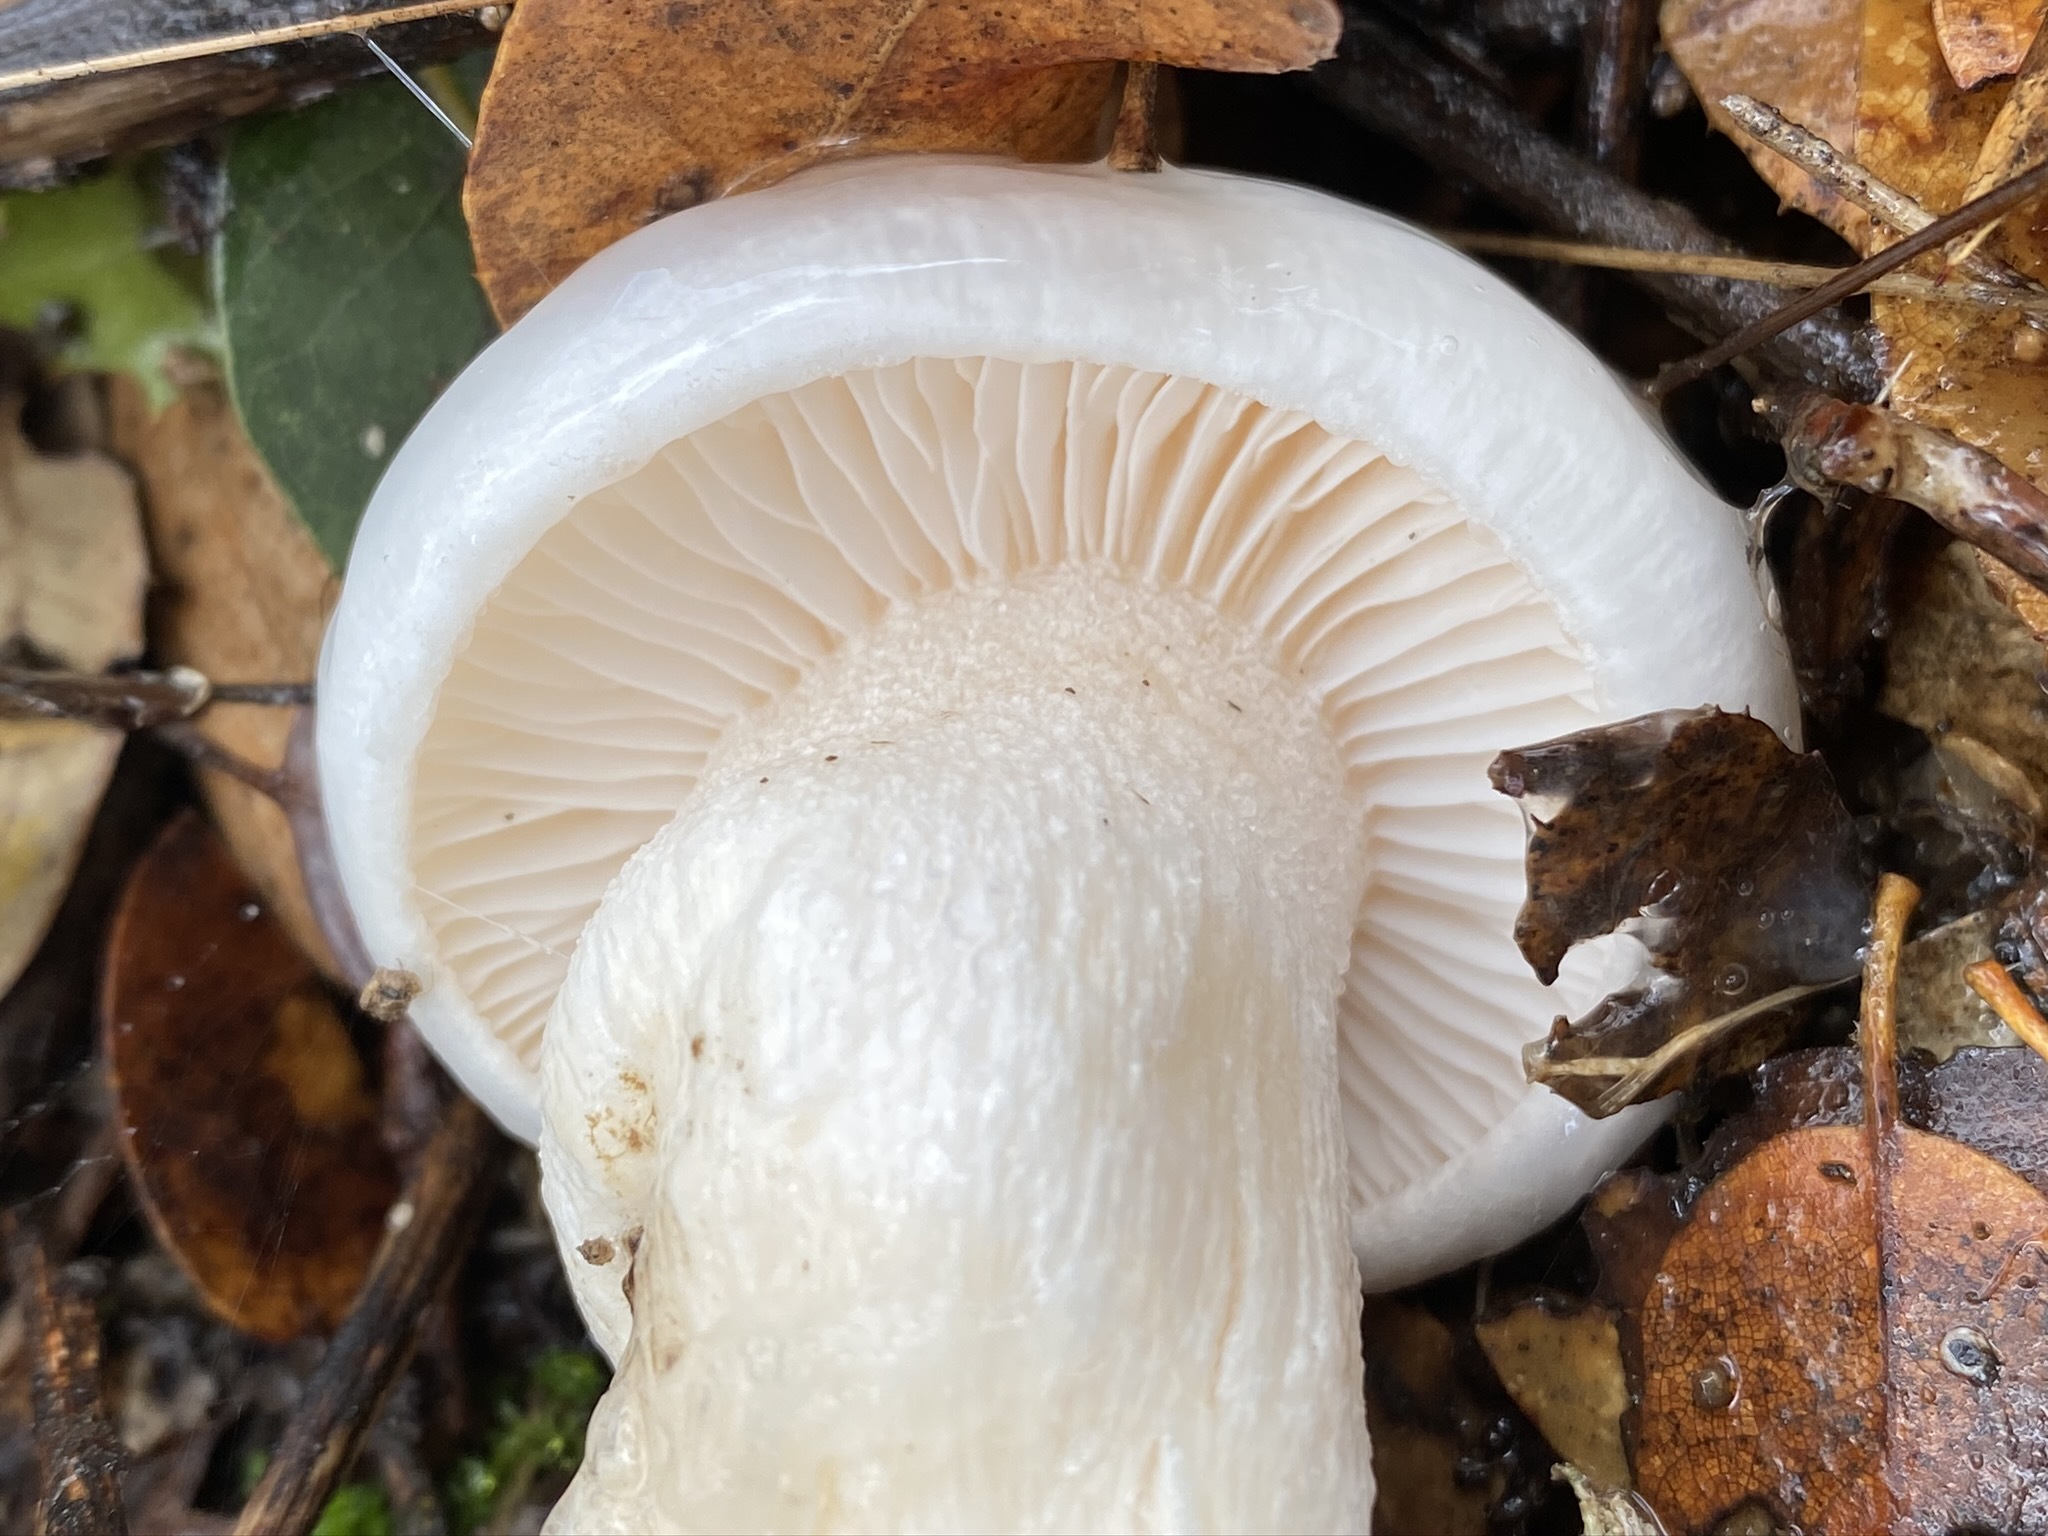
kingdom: Fungi
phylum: Basidiomycota
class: Agaricomycetes
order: Agaricales
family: Hygrophoraceae
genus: Hygrophorus
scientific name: Hygrophorus eburneus
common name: Ivory wax-cap
